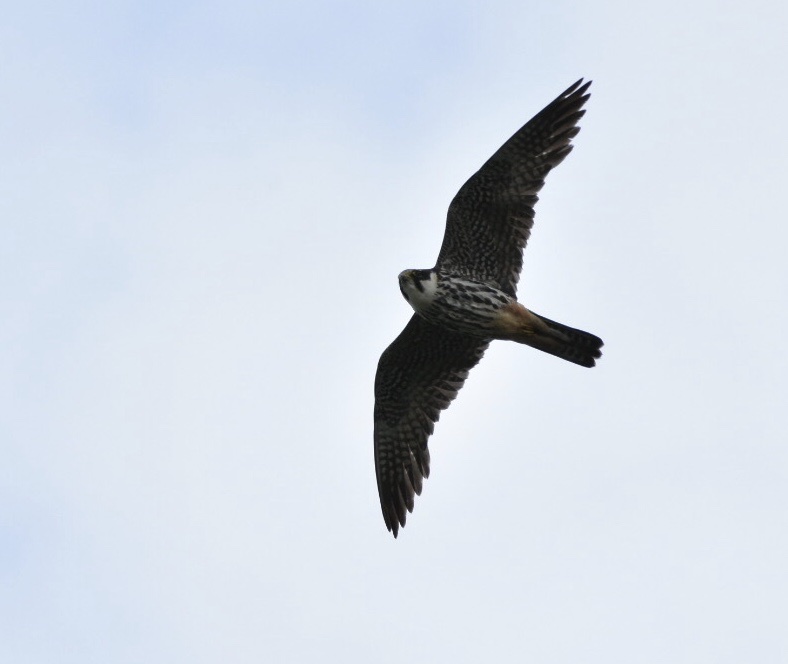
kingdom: Animalia
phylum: Chordata
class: Aves
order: Falconiformes
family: Falconidae
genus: Falco
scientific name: Falco subbuteo
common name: Eurasian hobby
